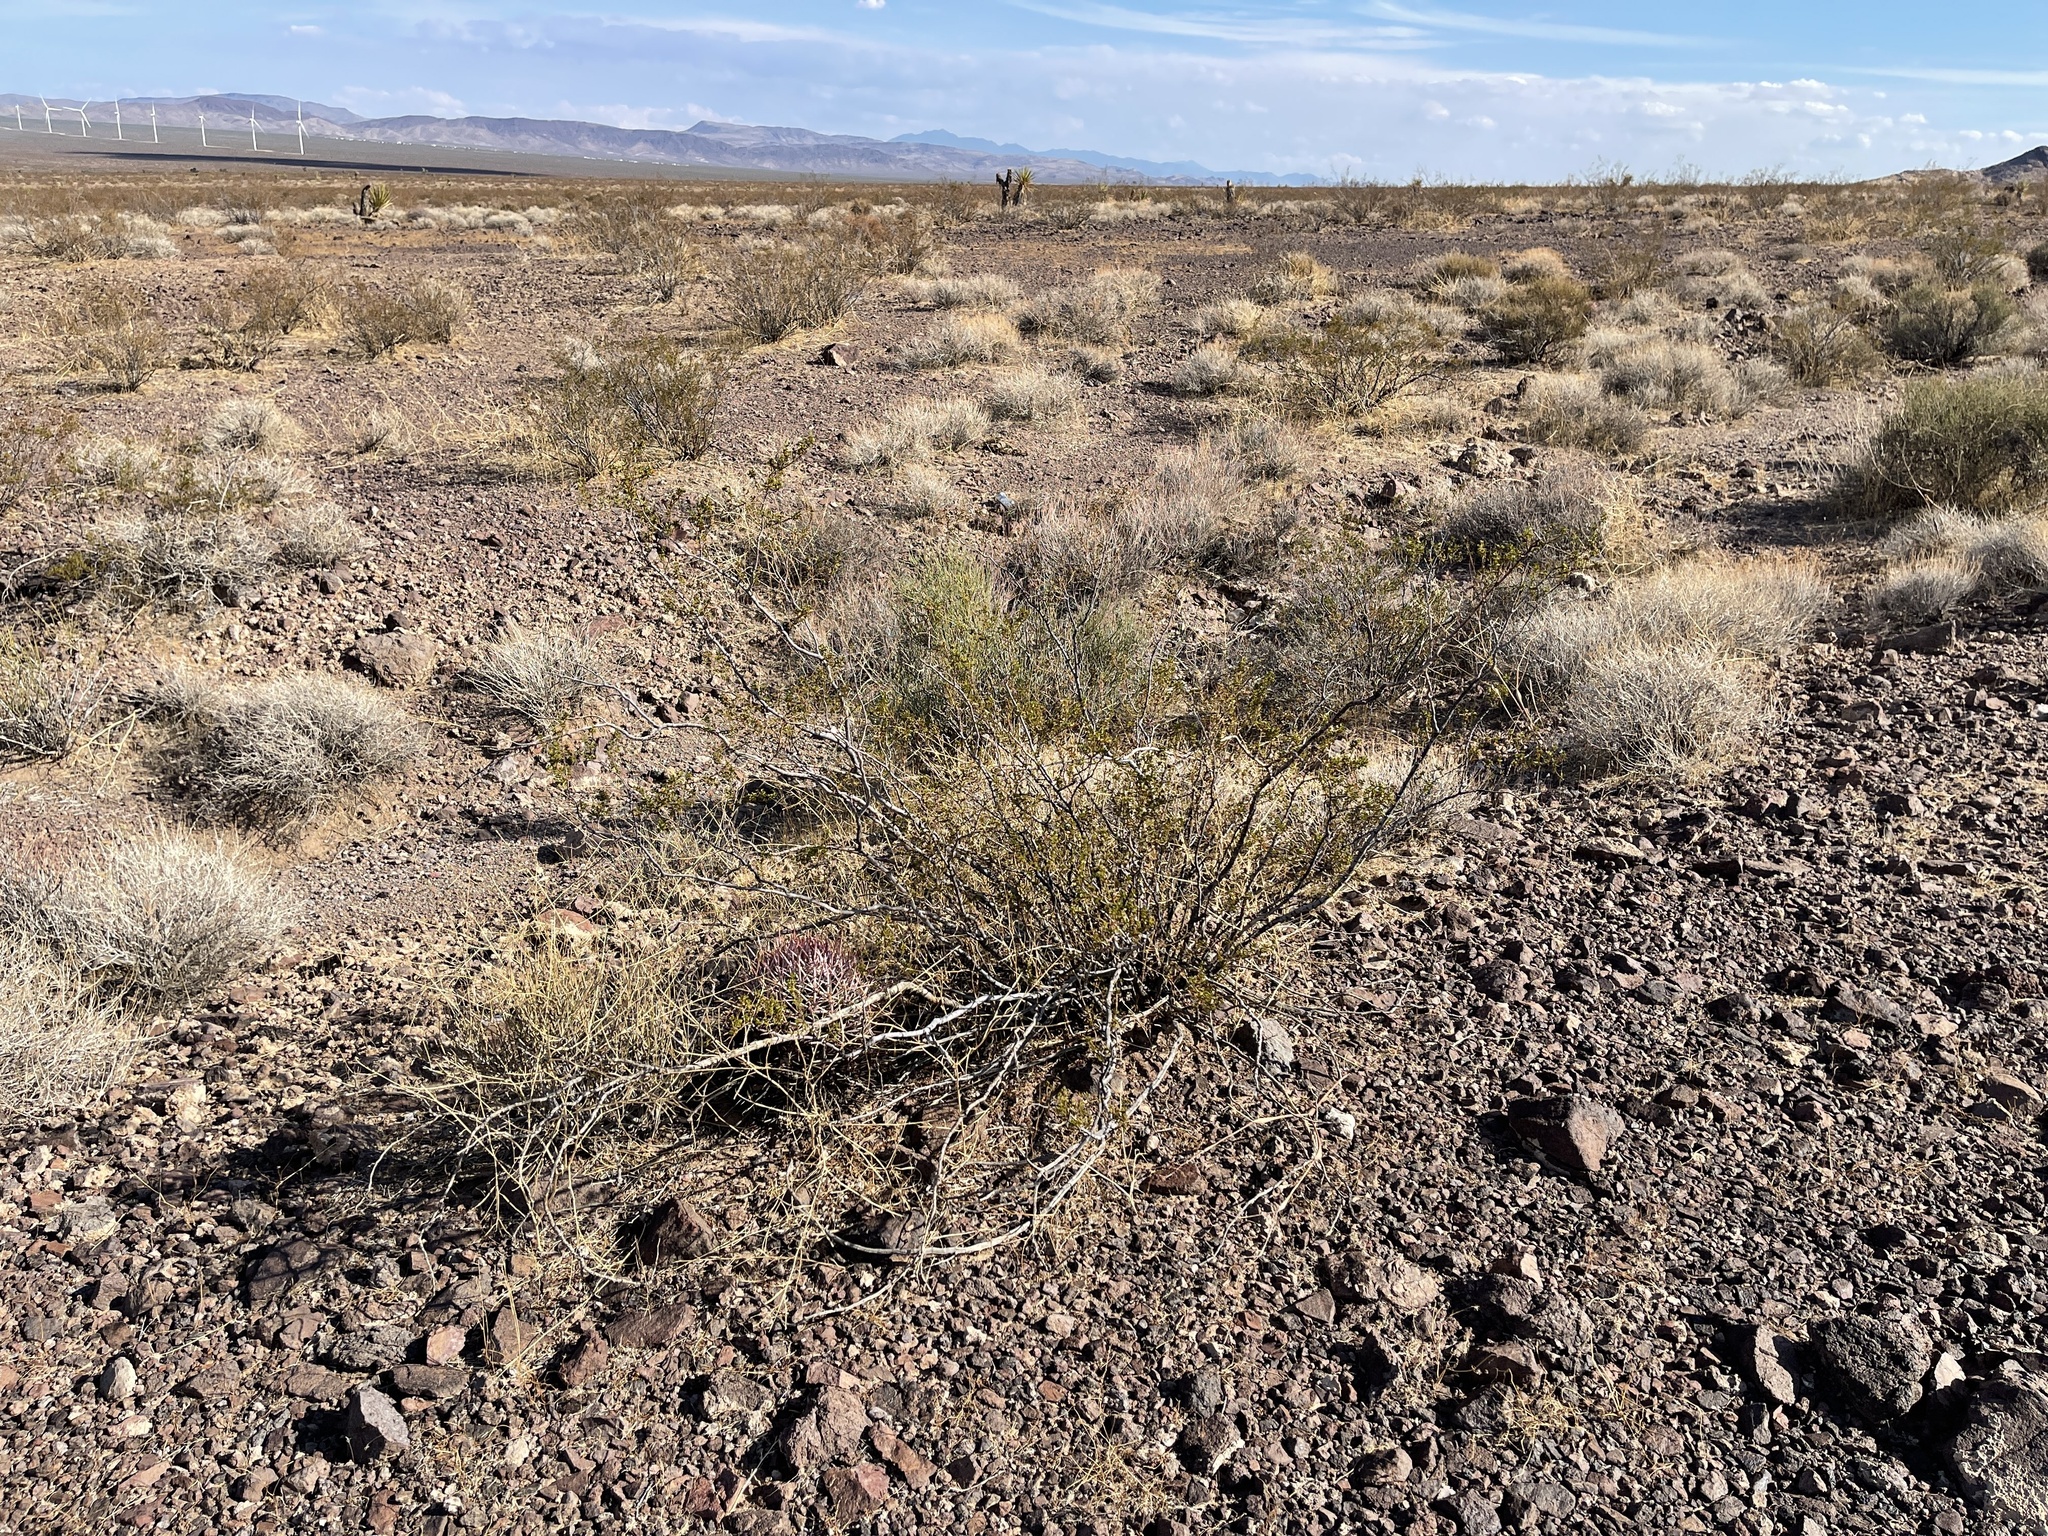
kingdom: Plantae
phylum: Tracheophyta
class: Magnoliopsida
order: Zygophyllales
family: Zygophyllaceae
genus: Larrea
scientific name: Larrea tridentata
